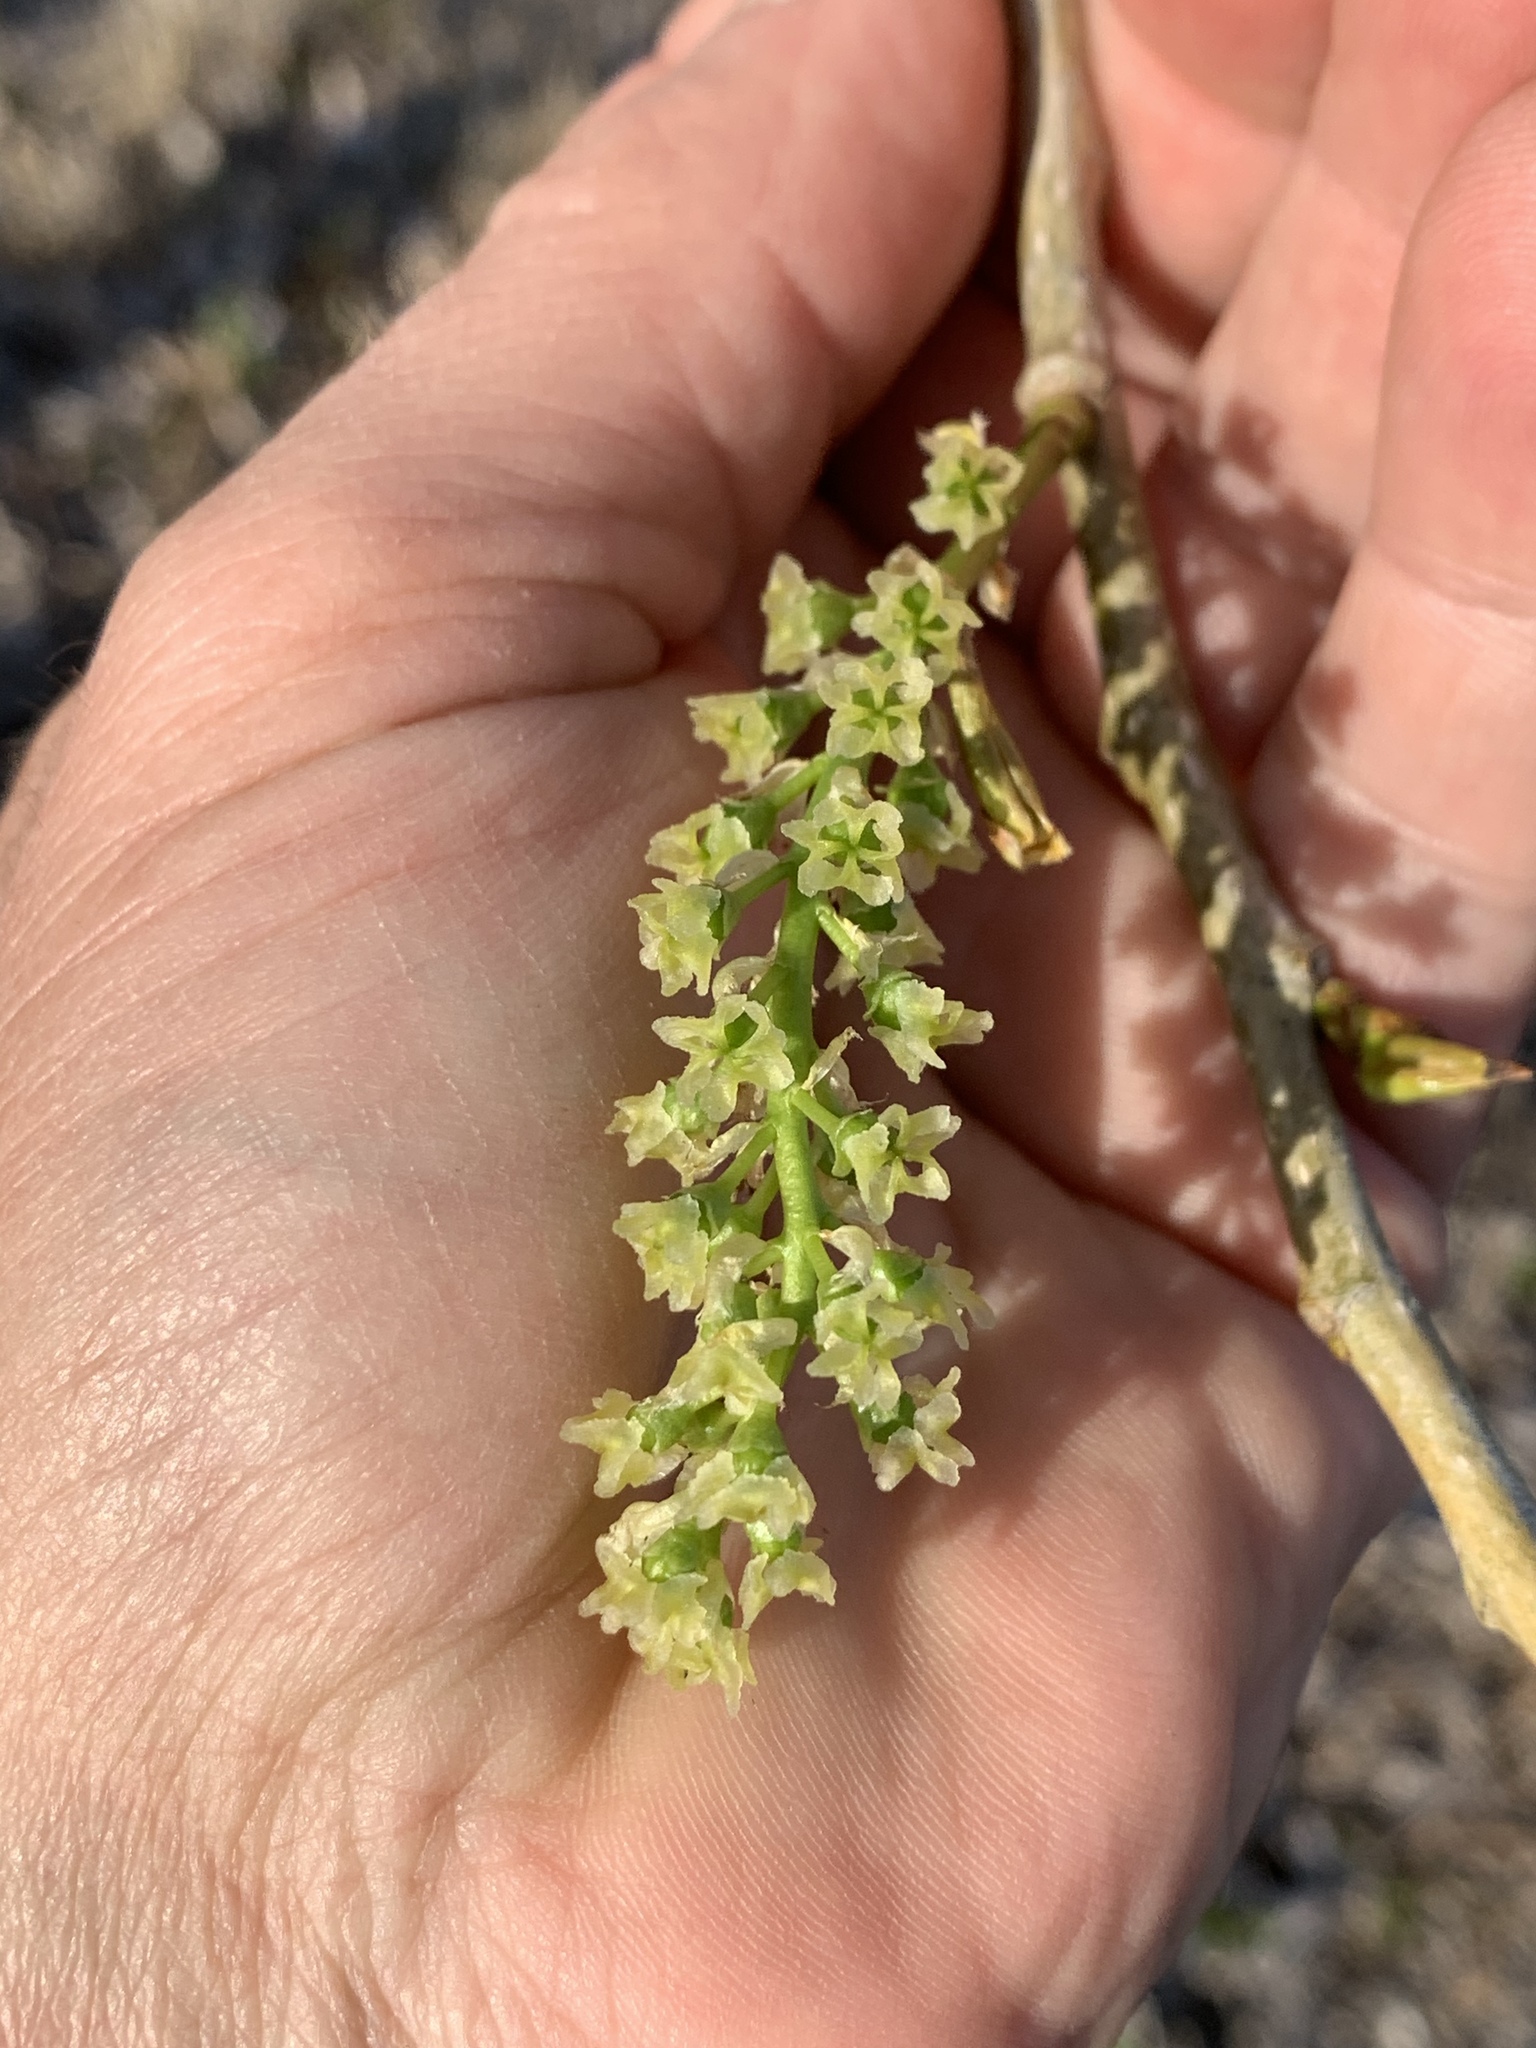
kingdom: Plantae
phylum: Tracheophyta
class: Magnoliopsida
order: Malpighiales
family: Salicaceae
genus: Populus
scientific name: Populus deltoides
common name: Eastern cottonwood
